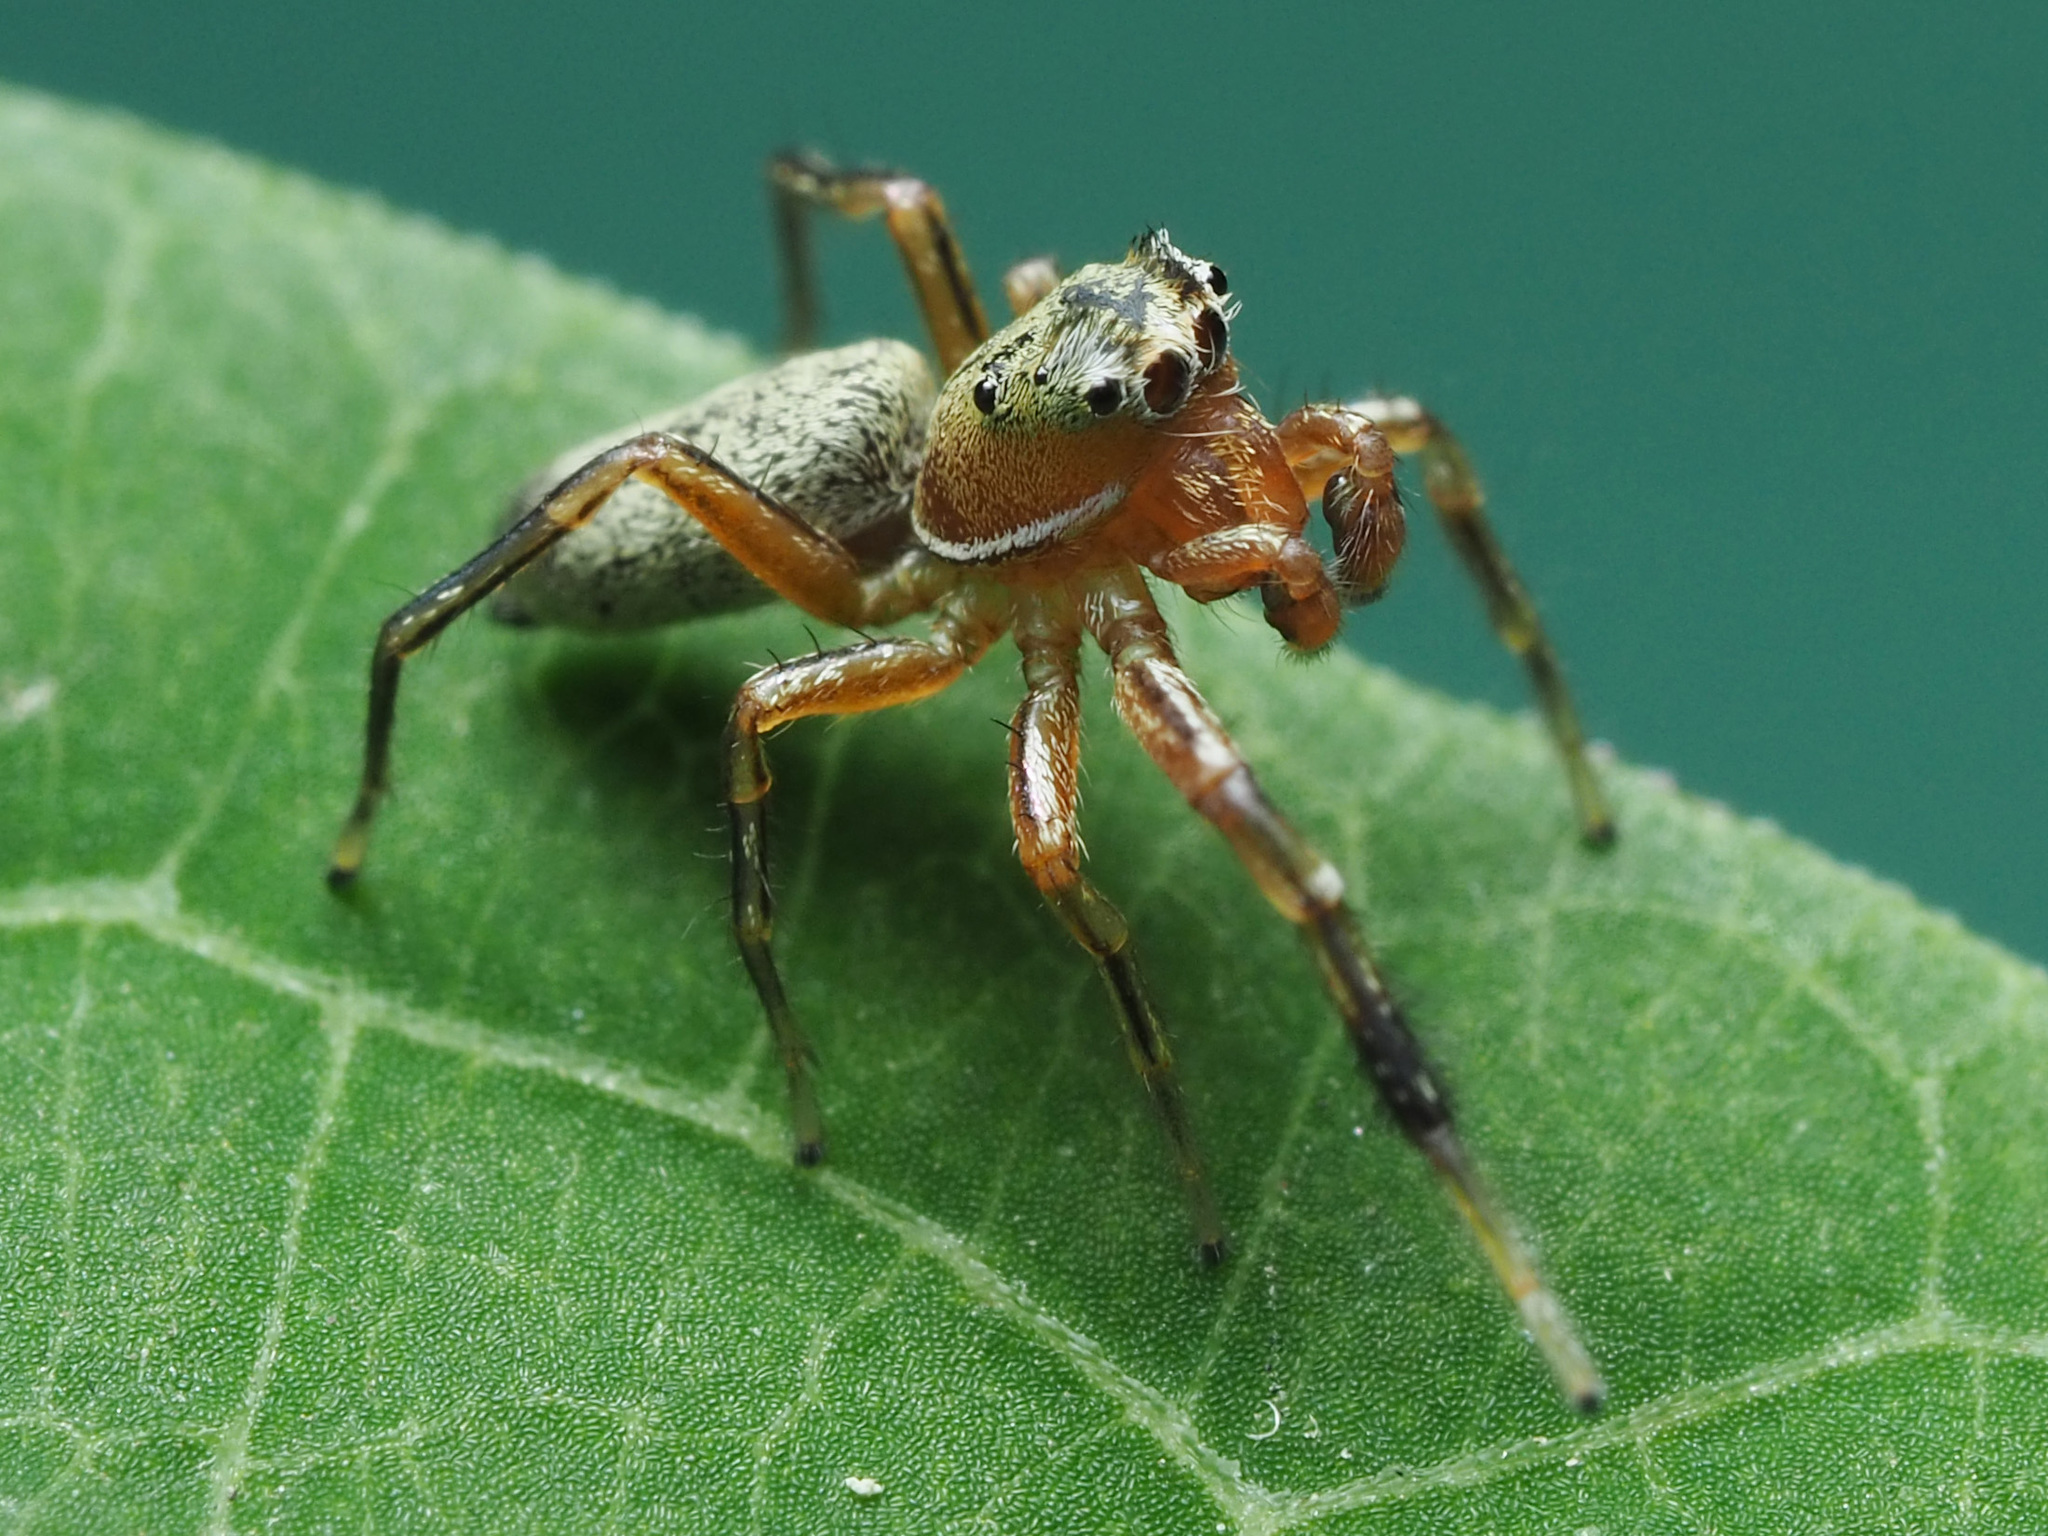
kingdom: Animalia
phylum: Arthropoda
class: Arachnida
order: Araneae
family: Salticidae
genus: Tutelina
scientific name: Tutelina elegans
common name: Thin-spined jumping spider
